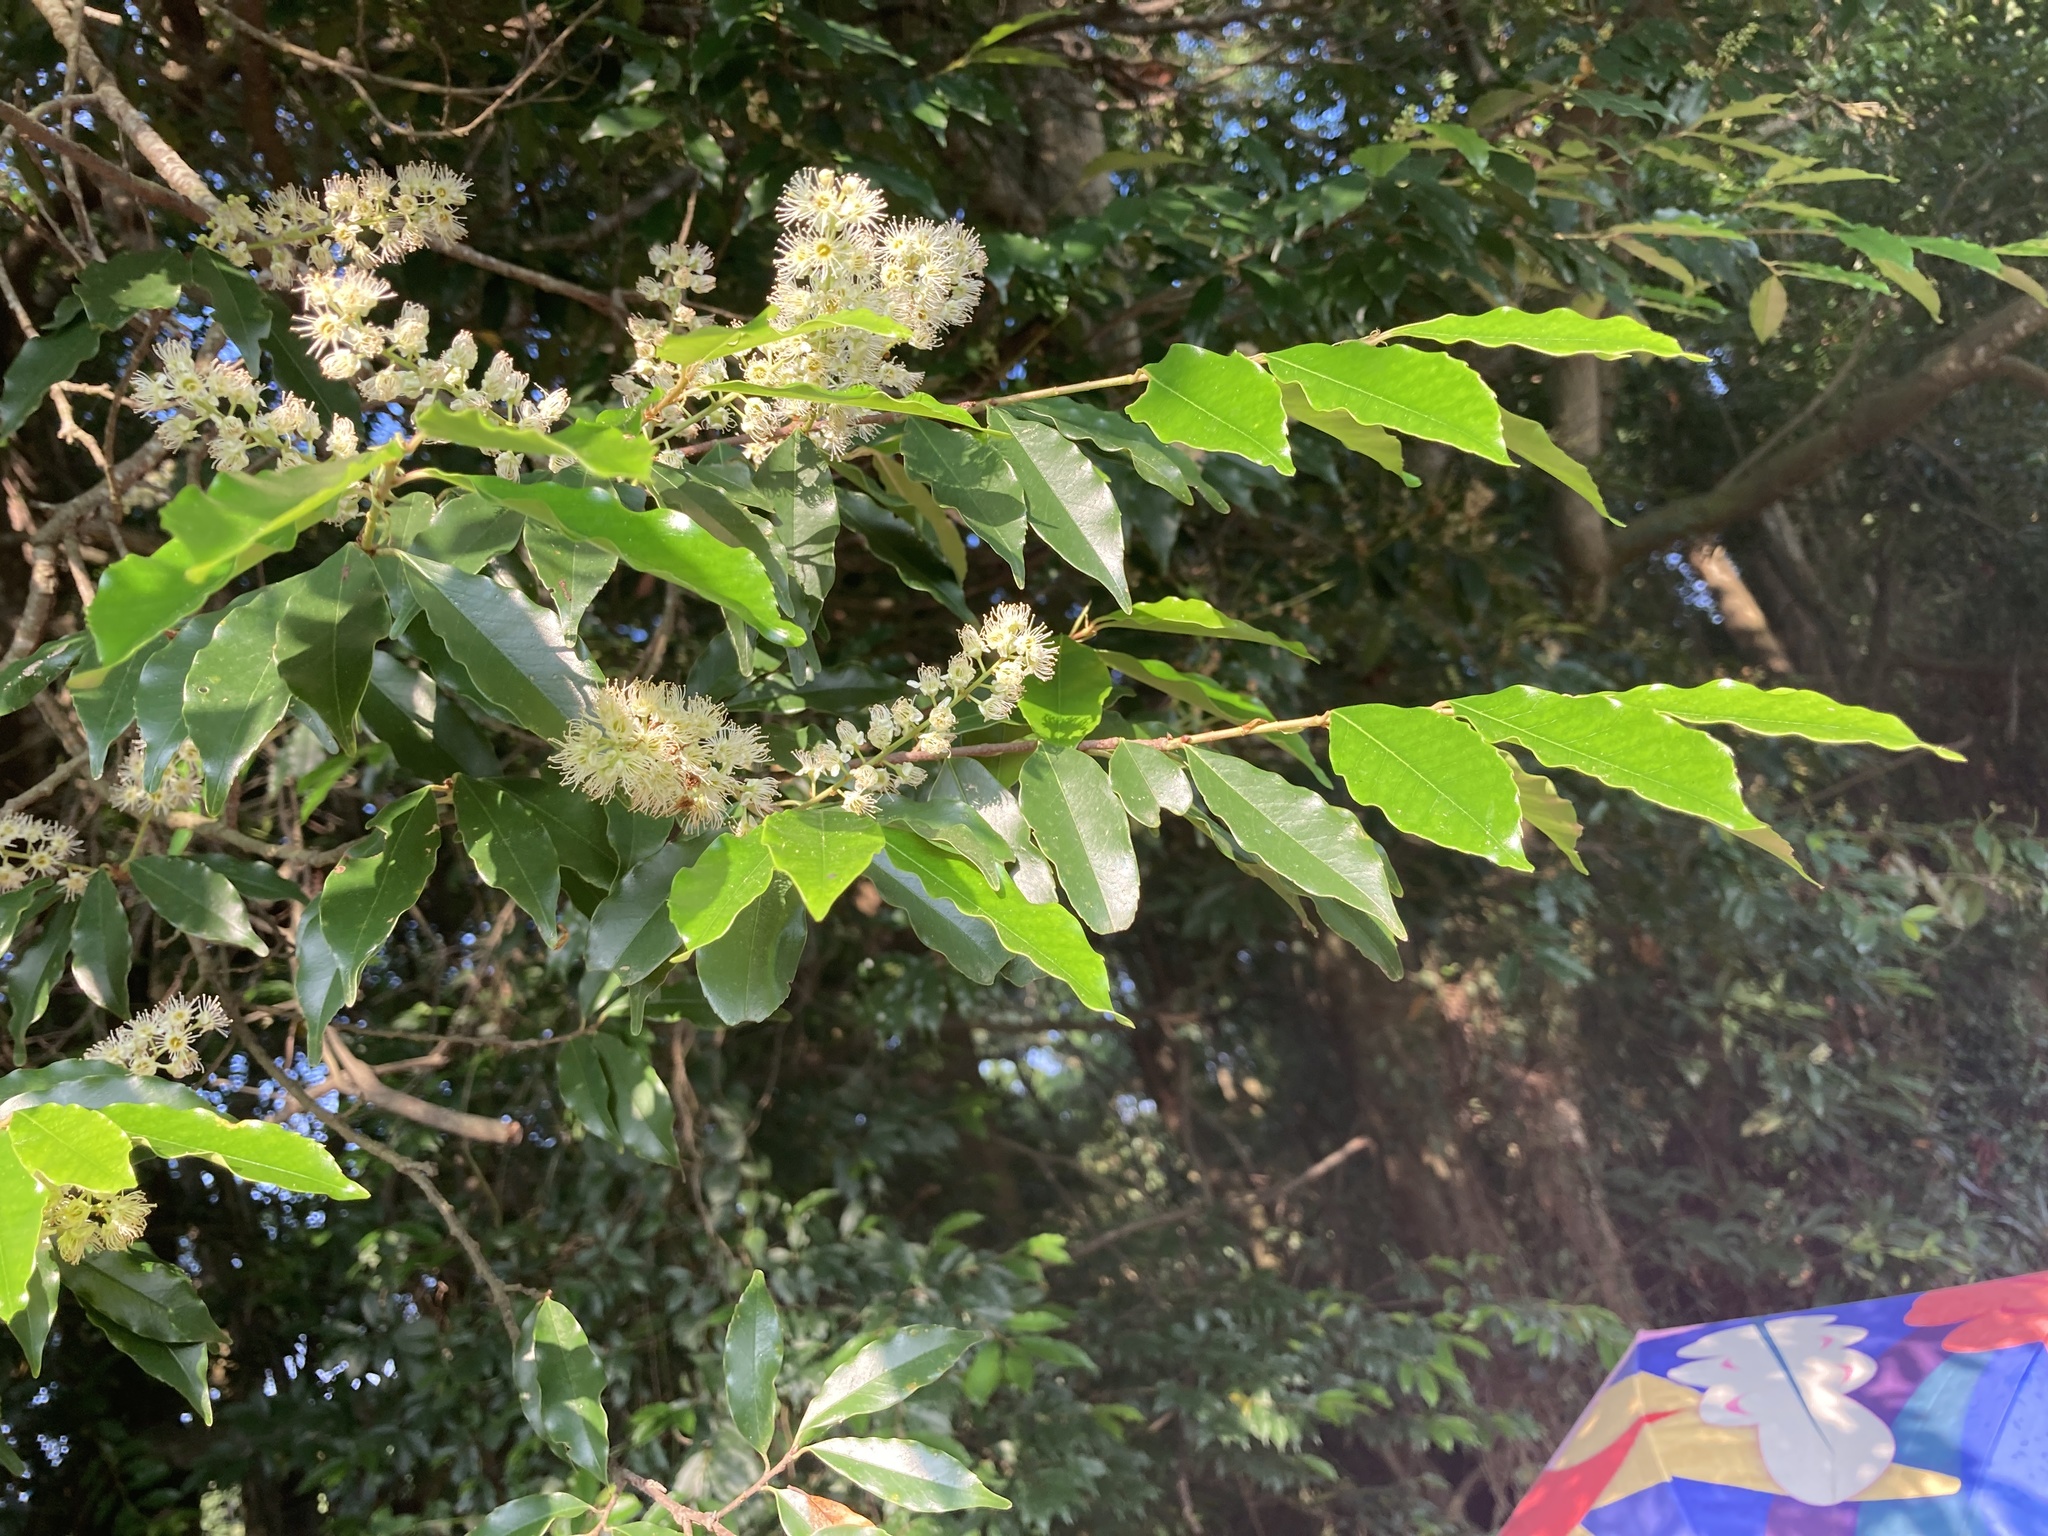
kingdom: Plantae
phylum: Tracheophyta
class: Magnoliopsida
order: Rosales
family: Rosaceae
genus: Prunus
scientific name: Prunus spinulosa
